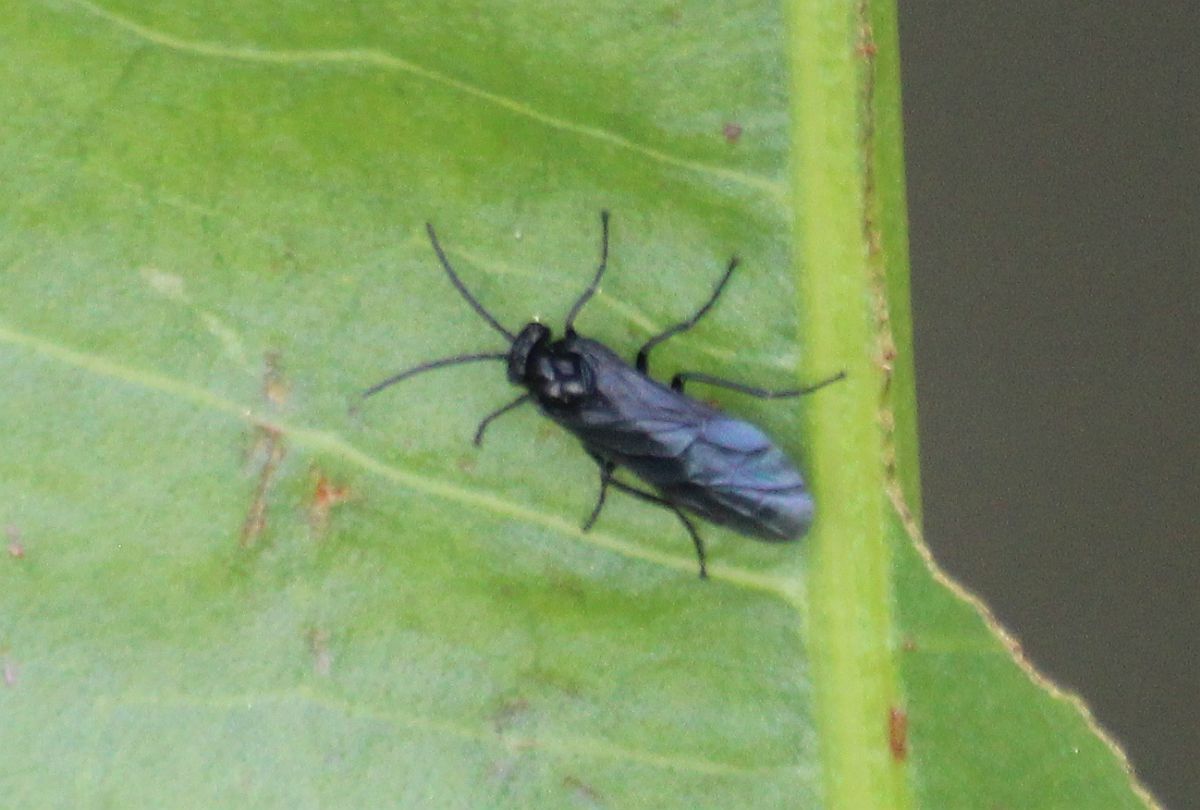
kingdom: Animalia
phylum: Arthropoda
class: Insecta
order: Hymenoptera
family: Tenthredinidae
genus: Phymatocera
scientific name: Phymatocera aterrima
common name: Solomon's-seal sawfly
